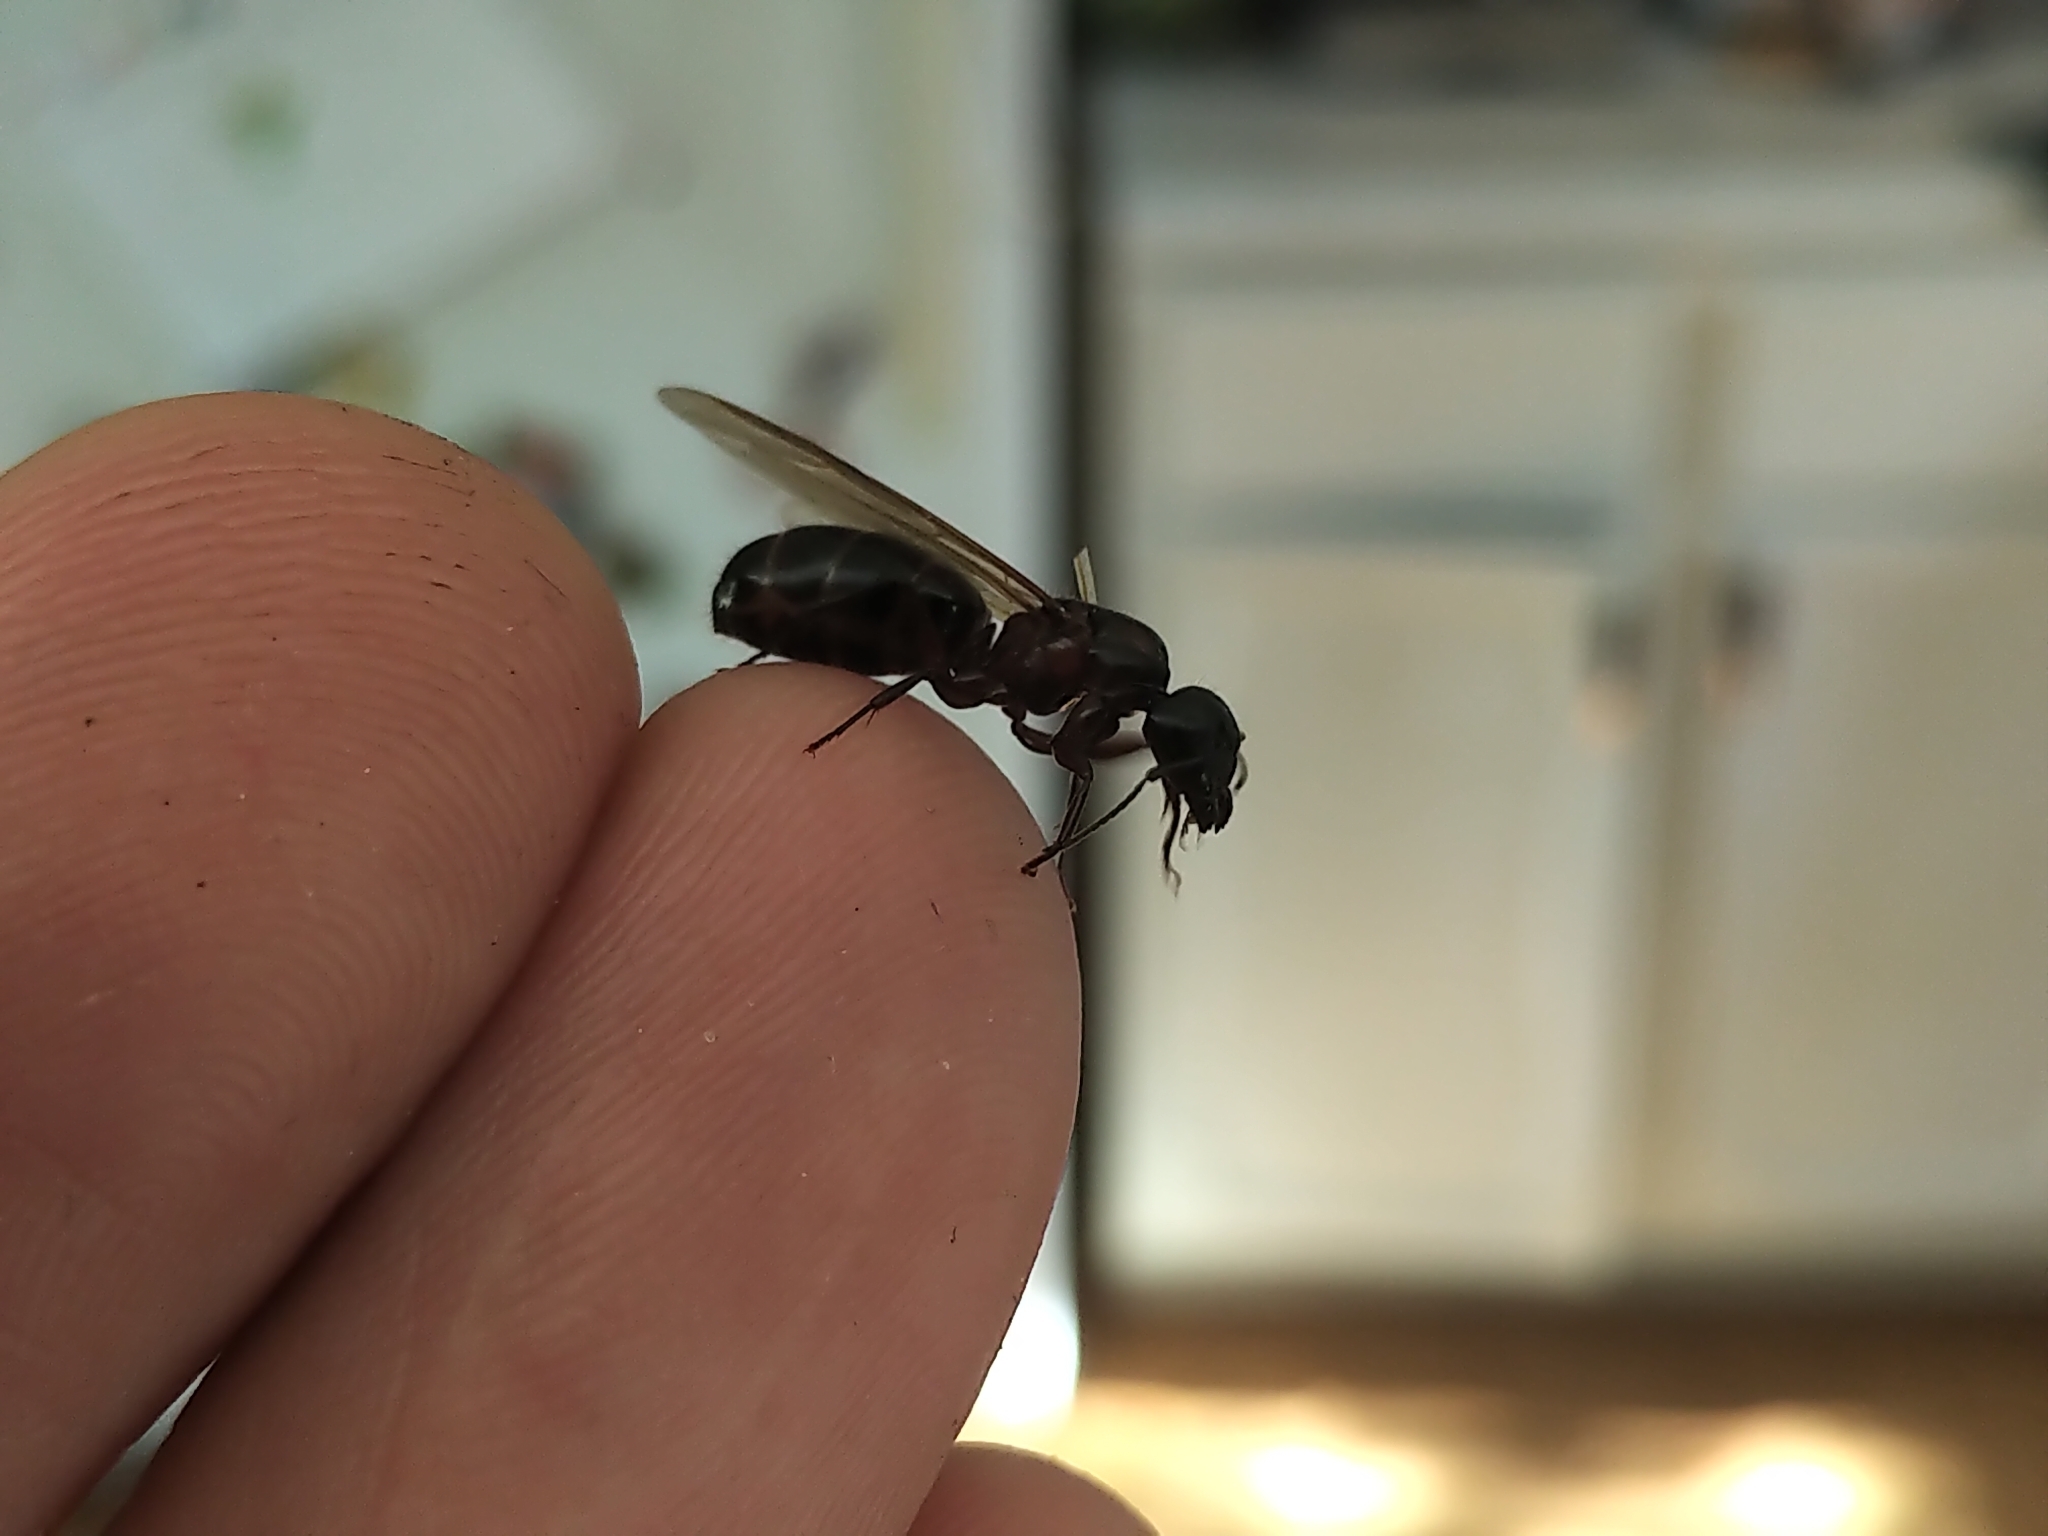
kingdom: Animalia
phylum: Arthropoda
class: Insecta
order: Hymenoptera
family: Formicidae
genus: Camponotus
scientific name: Camponotus novaeboracensis
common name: New york carpenter ant
